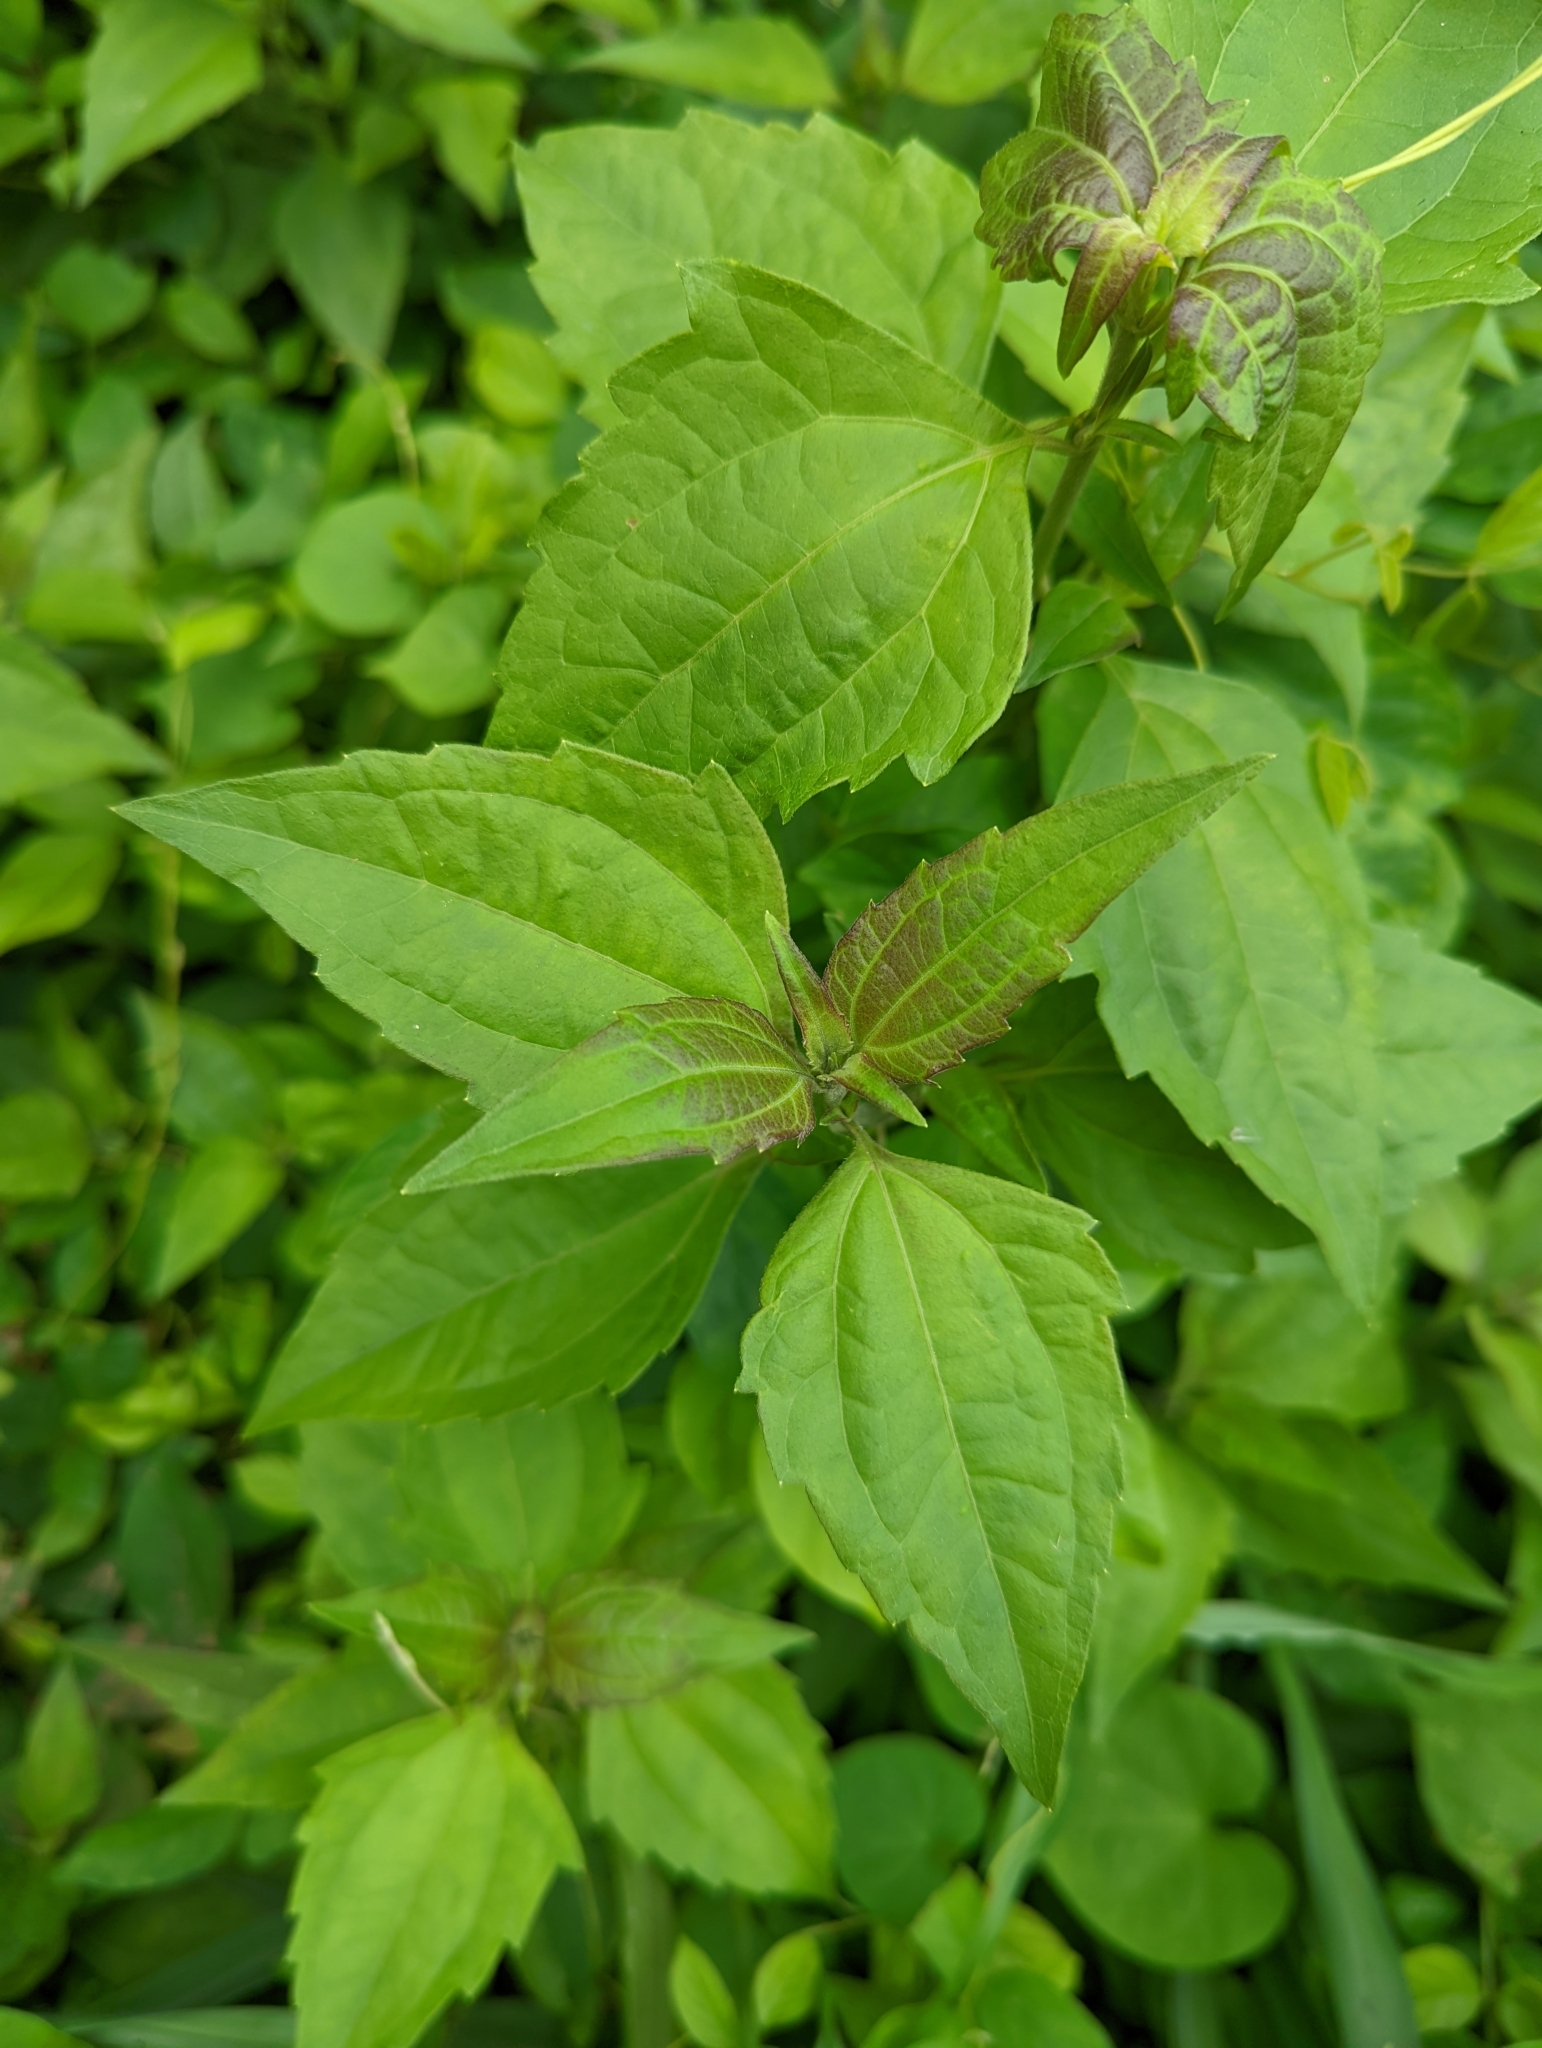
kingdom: Plantae
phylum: Tracheophyta
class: Magnoliopsida
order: Asterales
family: Asteraceae
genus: Chromolaena
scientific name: Chromolaena odorata
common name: Siamweed
